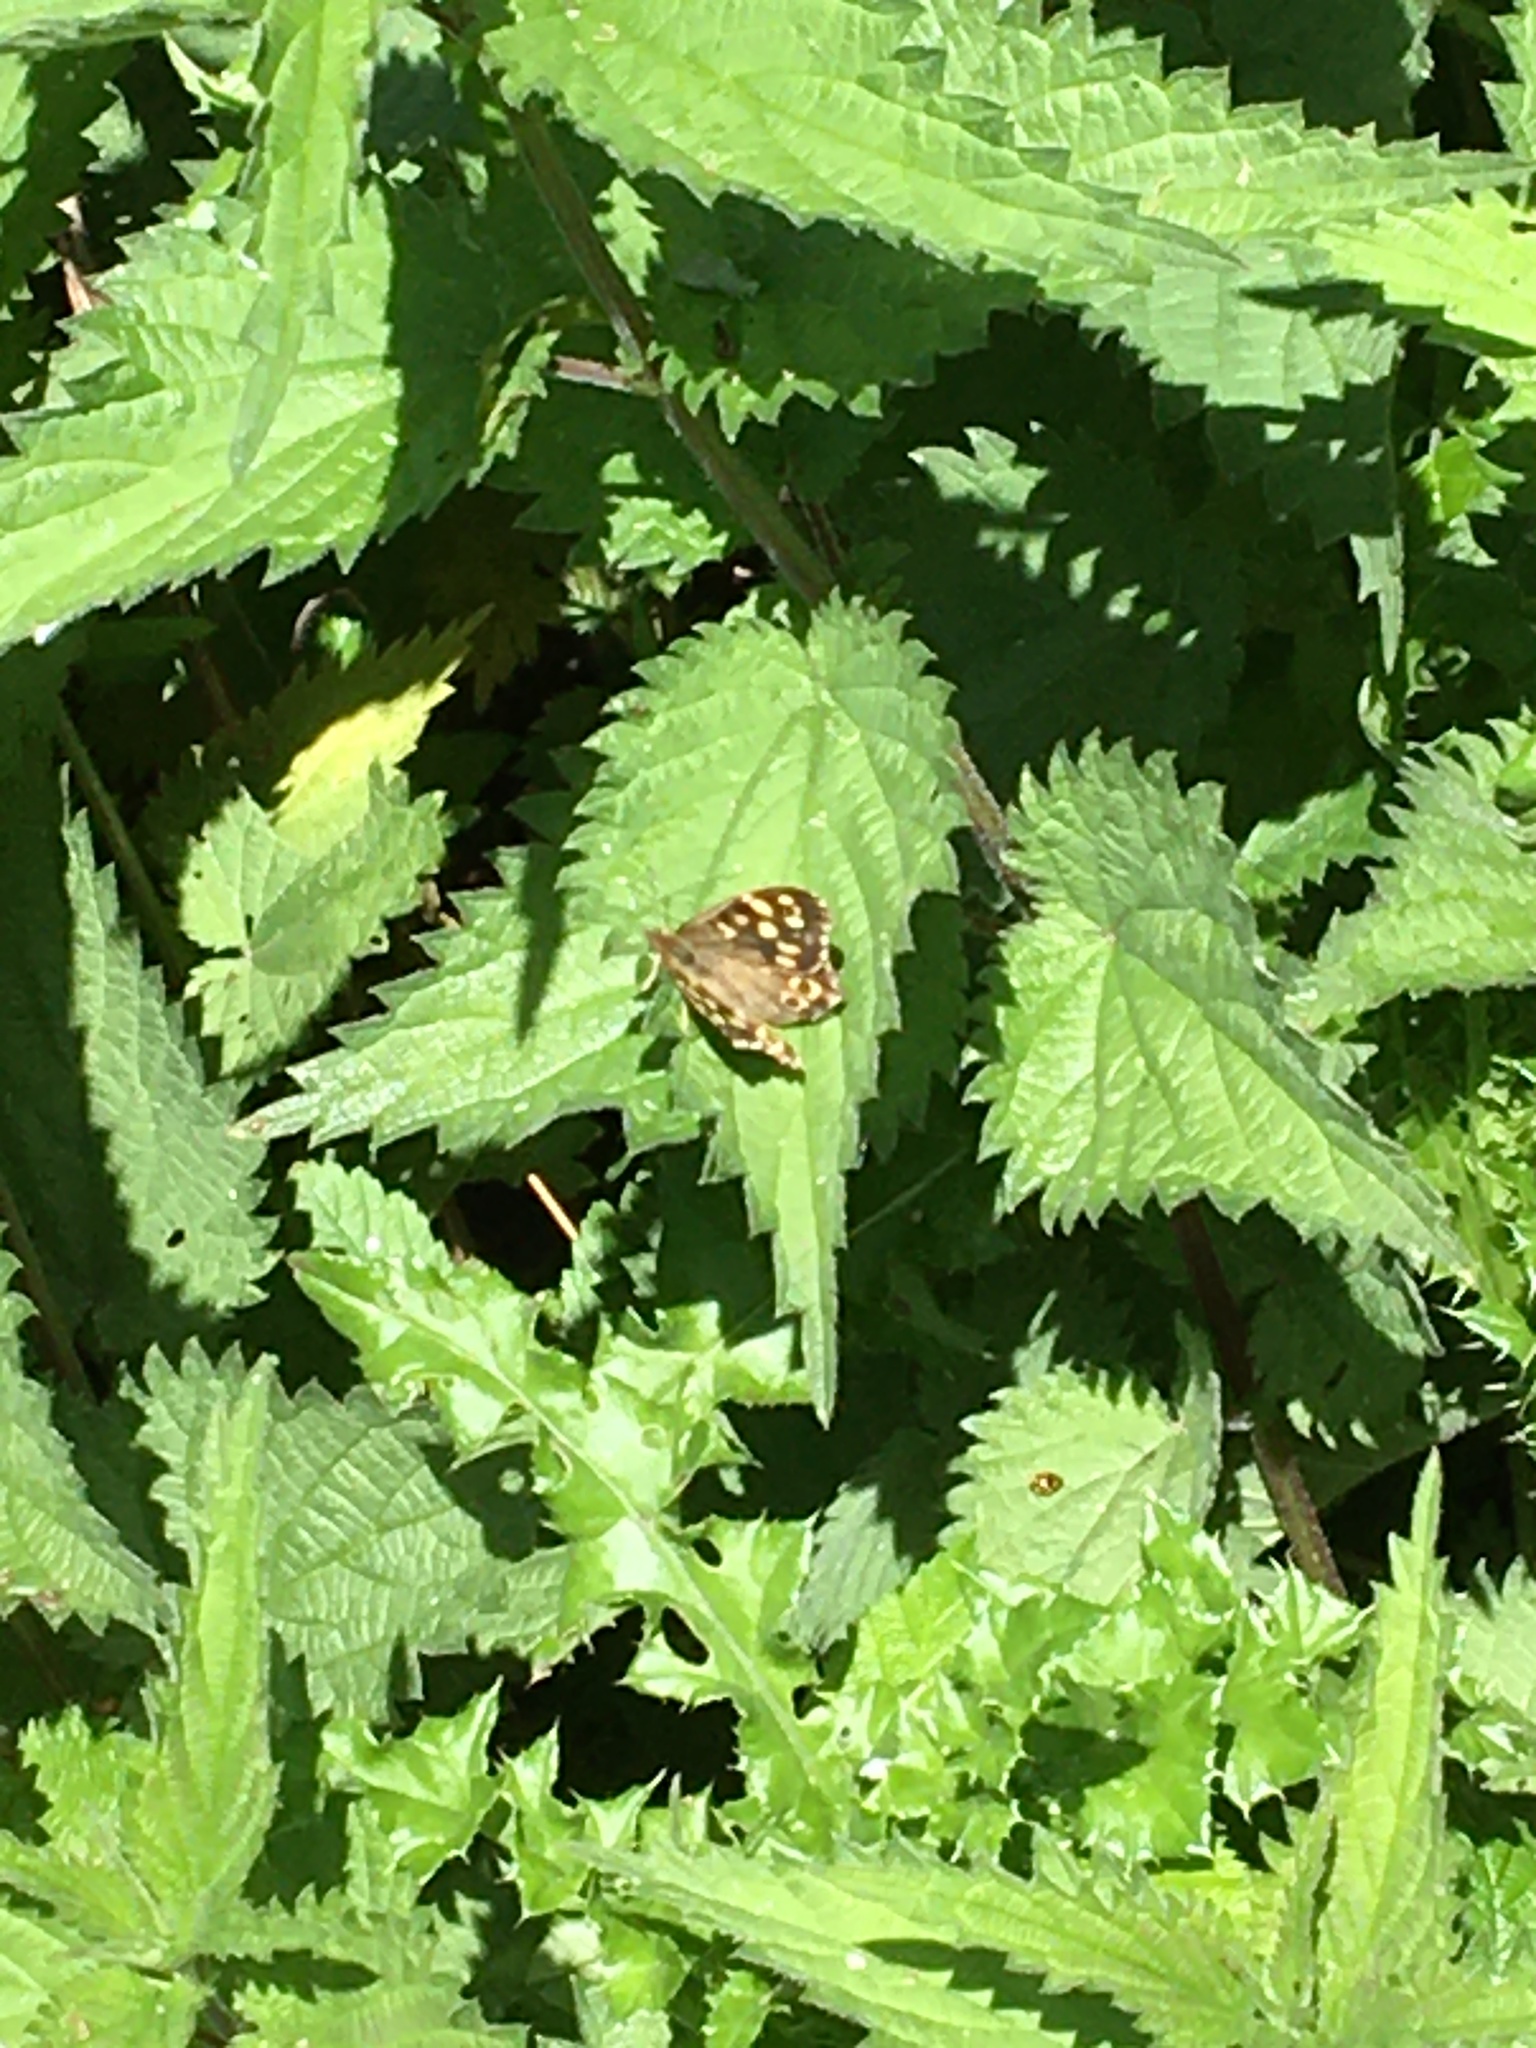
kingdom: Animalia
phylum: Arthropoda
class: Insecta
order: Lepidoptera
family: Nymphalidae
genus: Pararge
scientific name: Pararge aegeria
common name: Speckled wood
